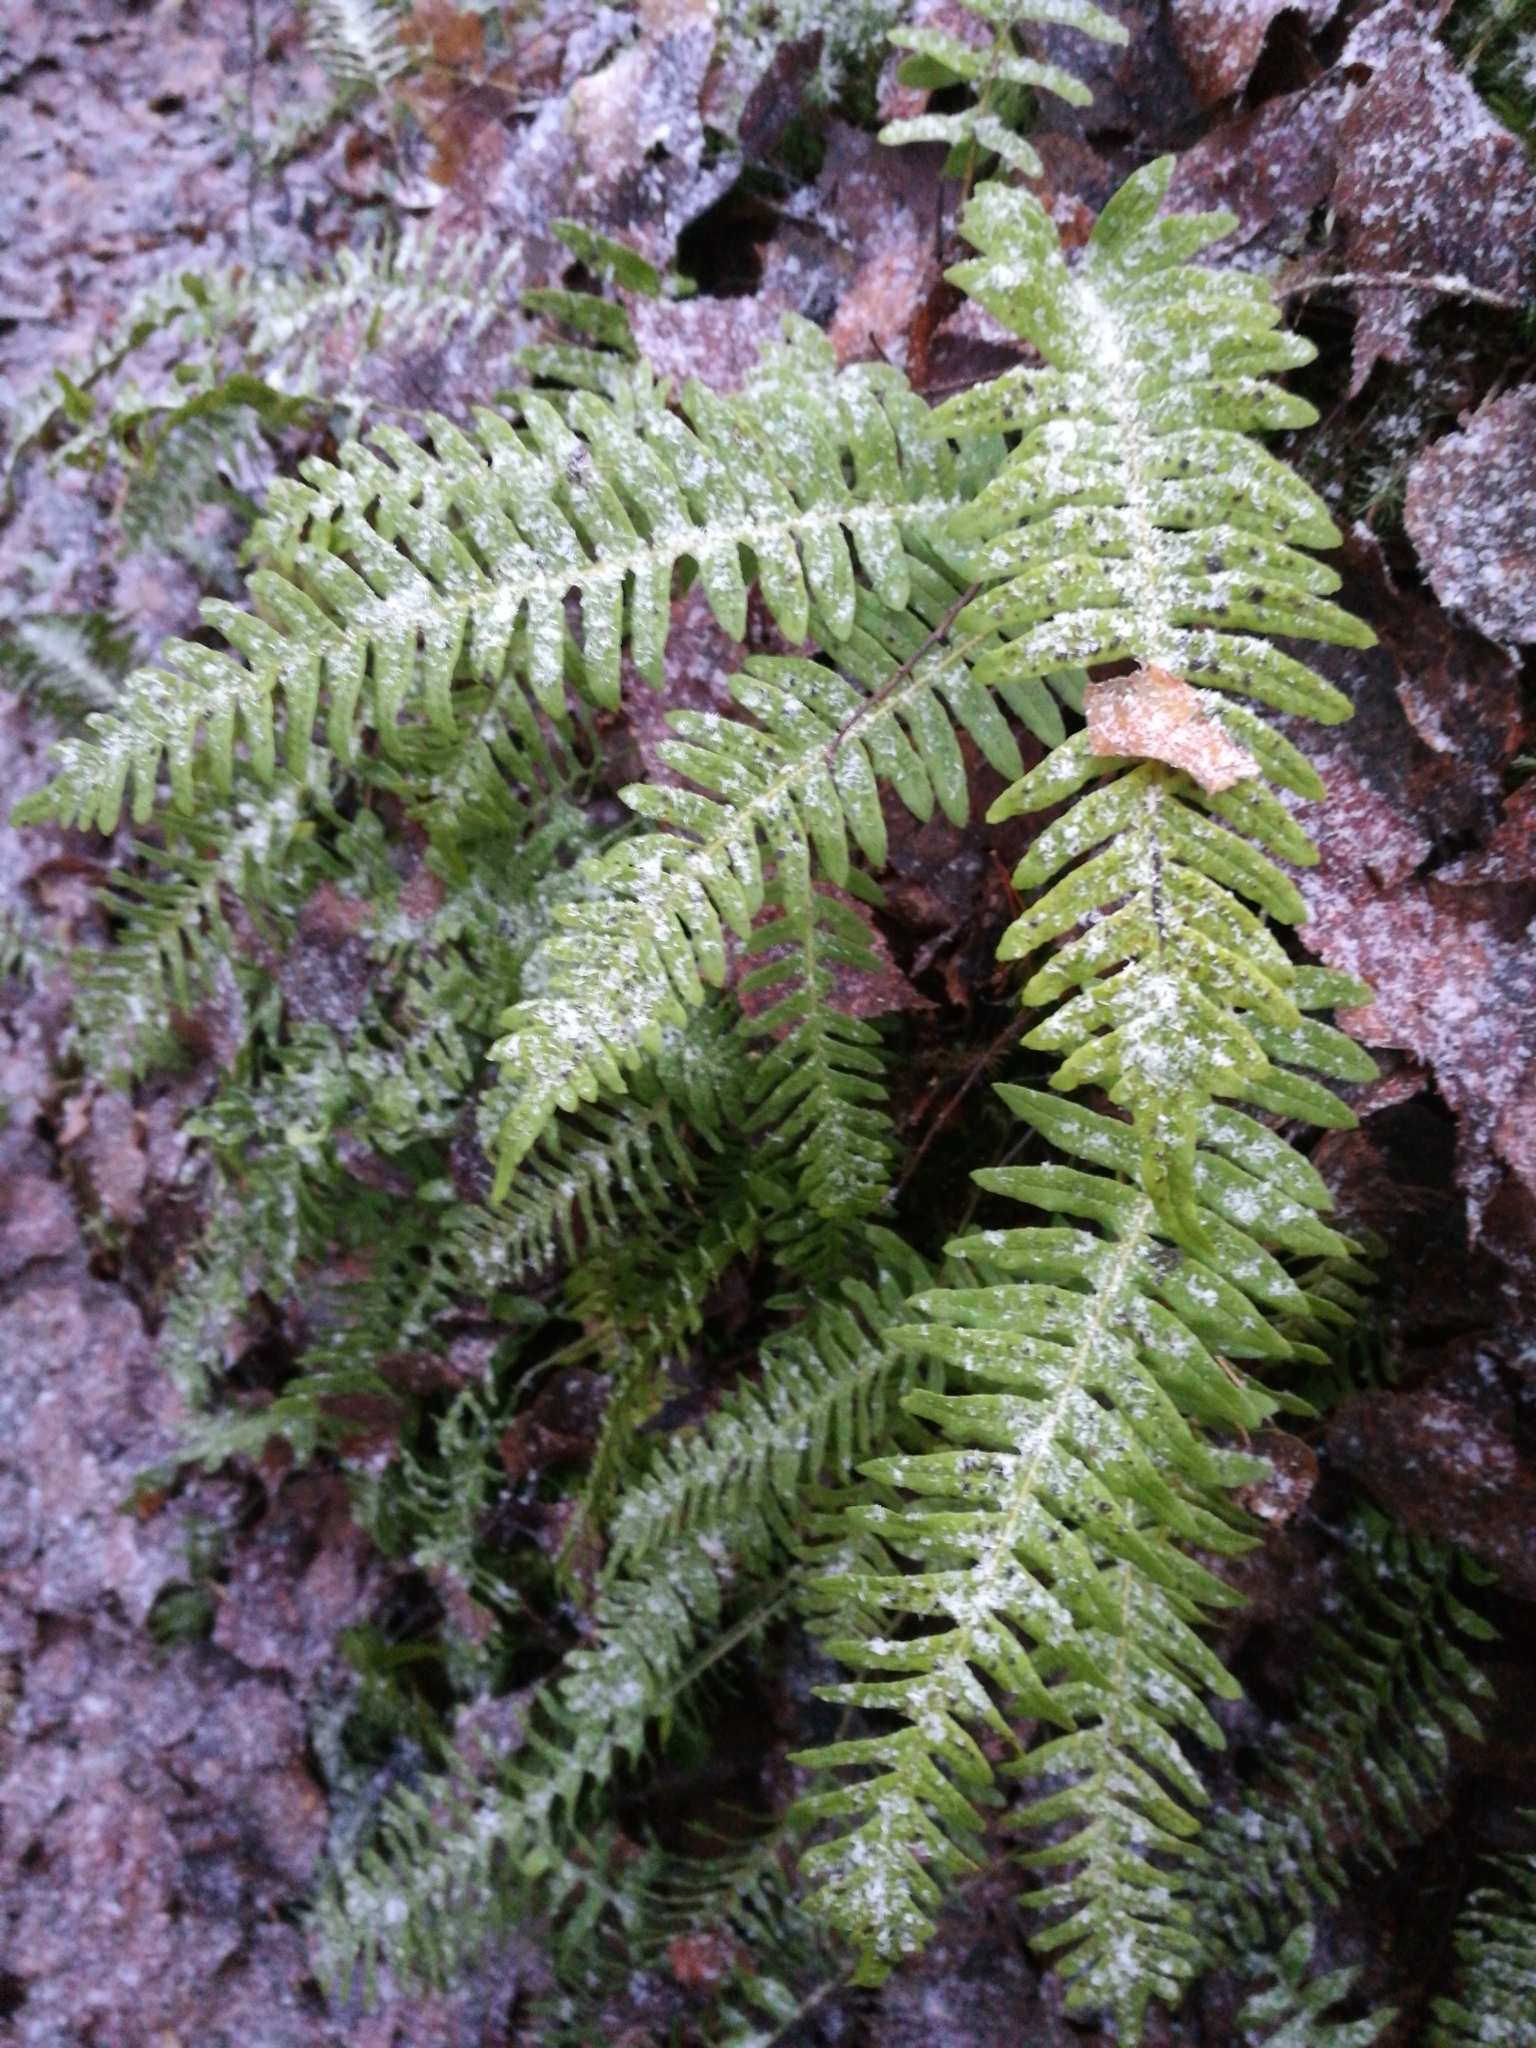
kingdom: Plantae
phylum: Tracheophyta
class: Polypodiopsida
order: Polypodiales
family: Polypodiaceae
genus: Polypodium
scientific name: Polypodium vulgare
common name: Common polypody
